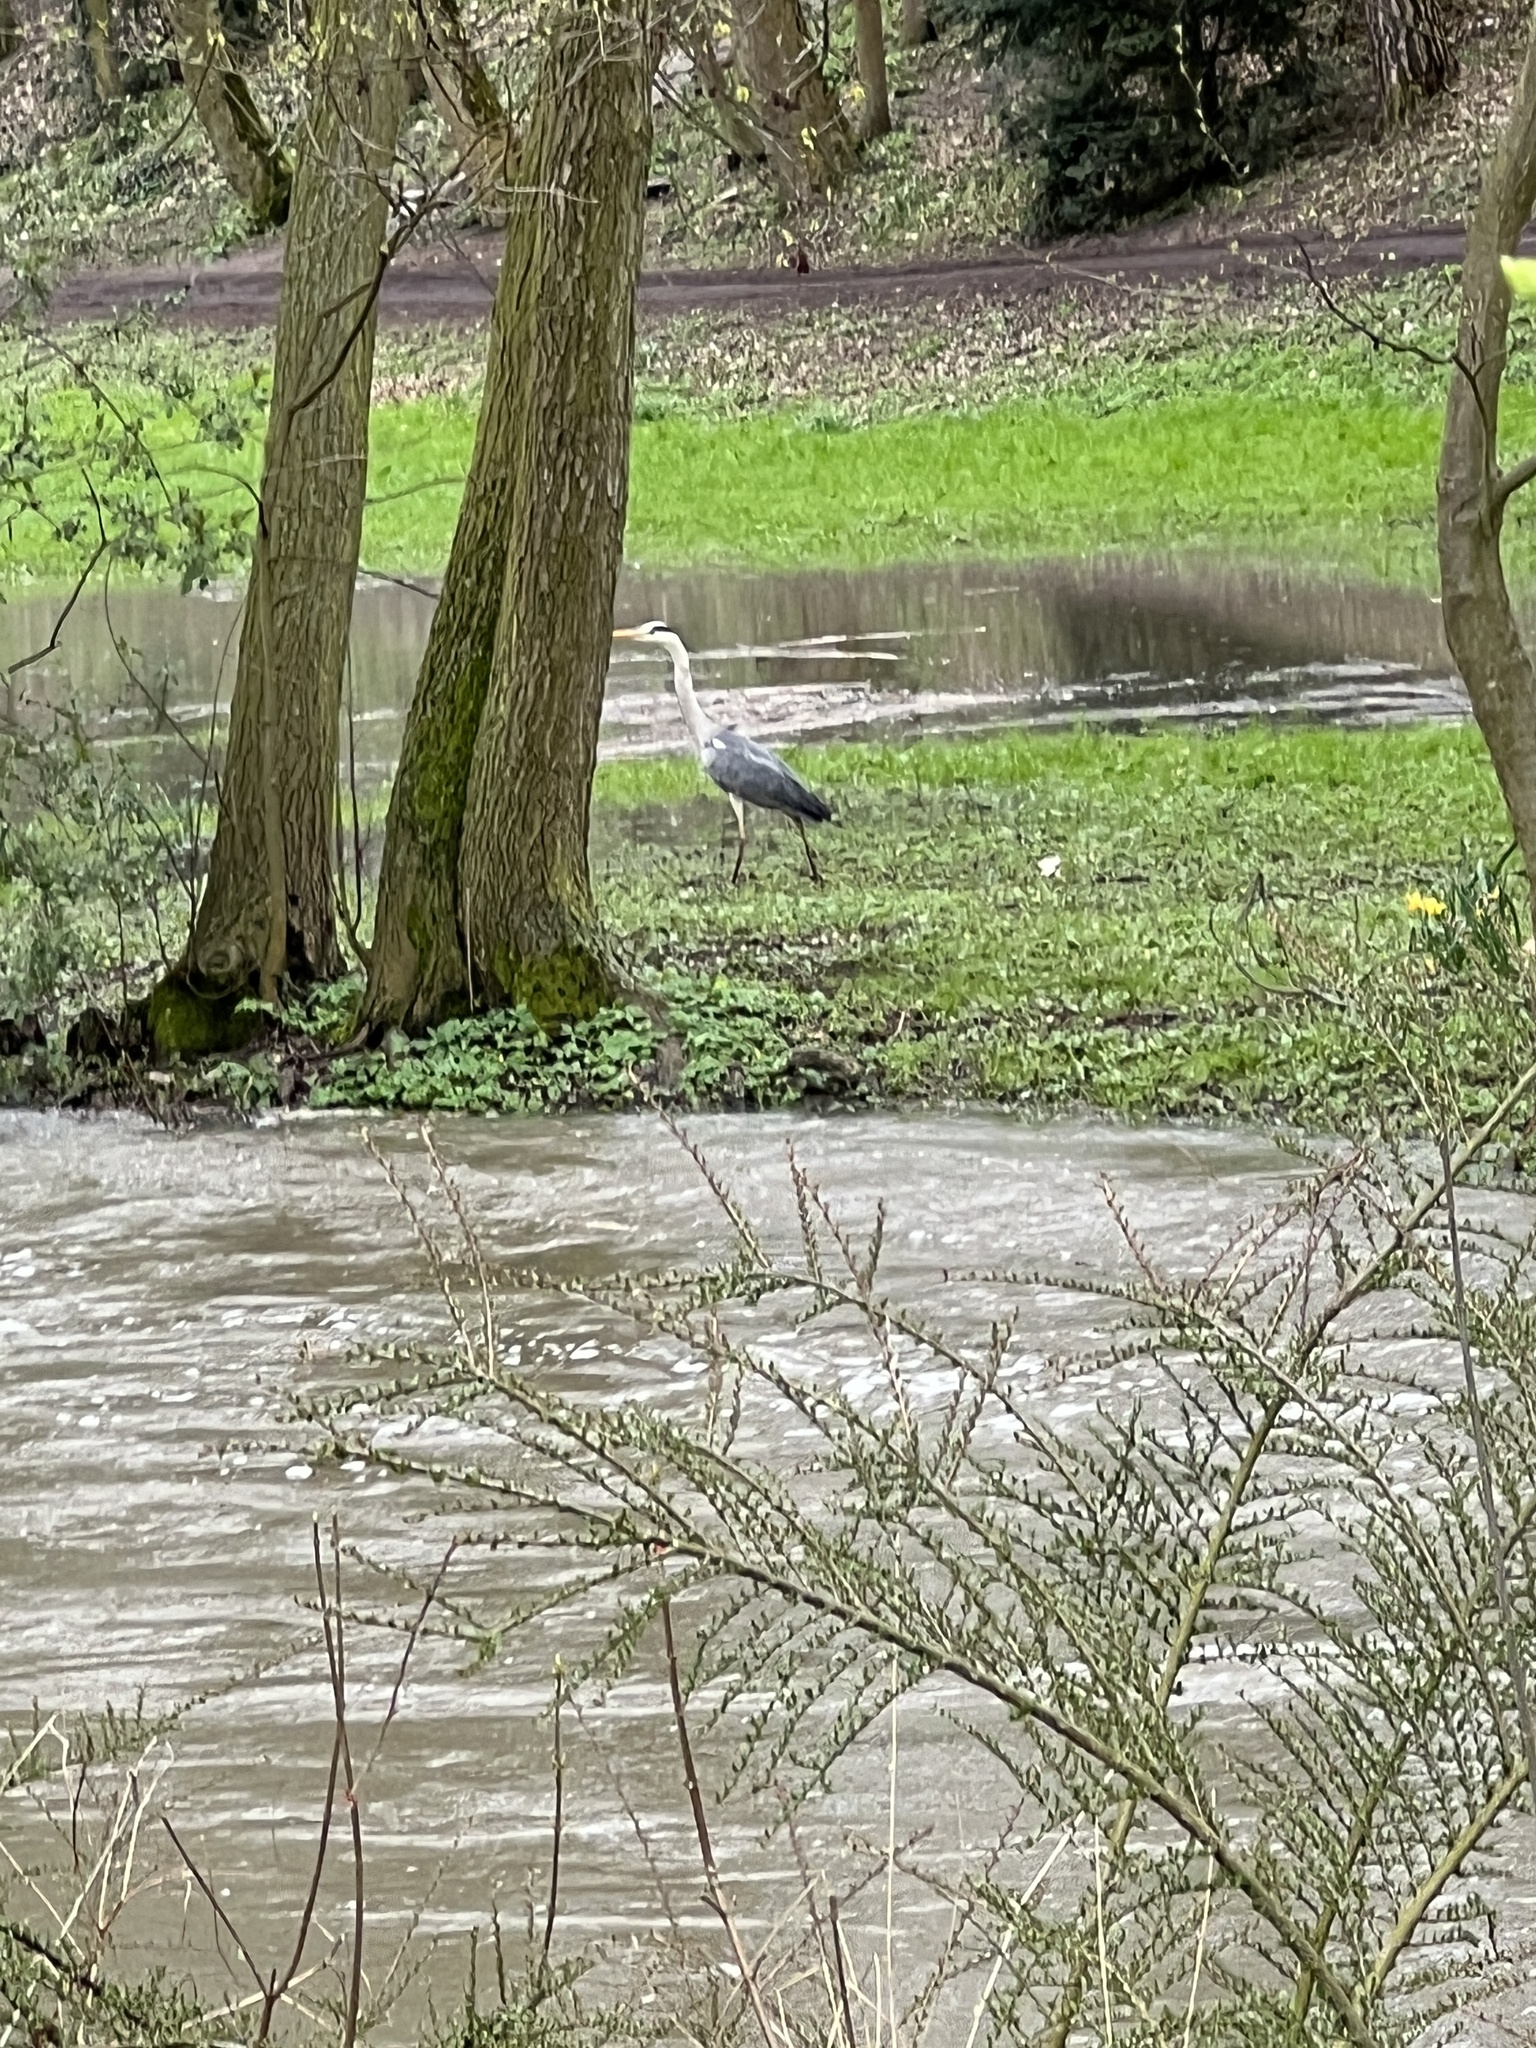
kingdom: Animalia
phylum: Chordata
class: Aves
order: Pelecaniformes
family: Ardeidae
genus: Ardea
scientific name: Ardea cinerea
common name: Grey heron
